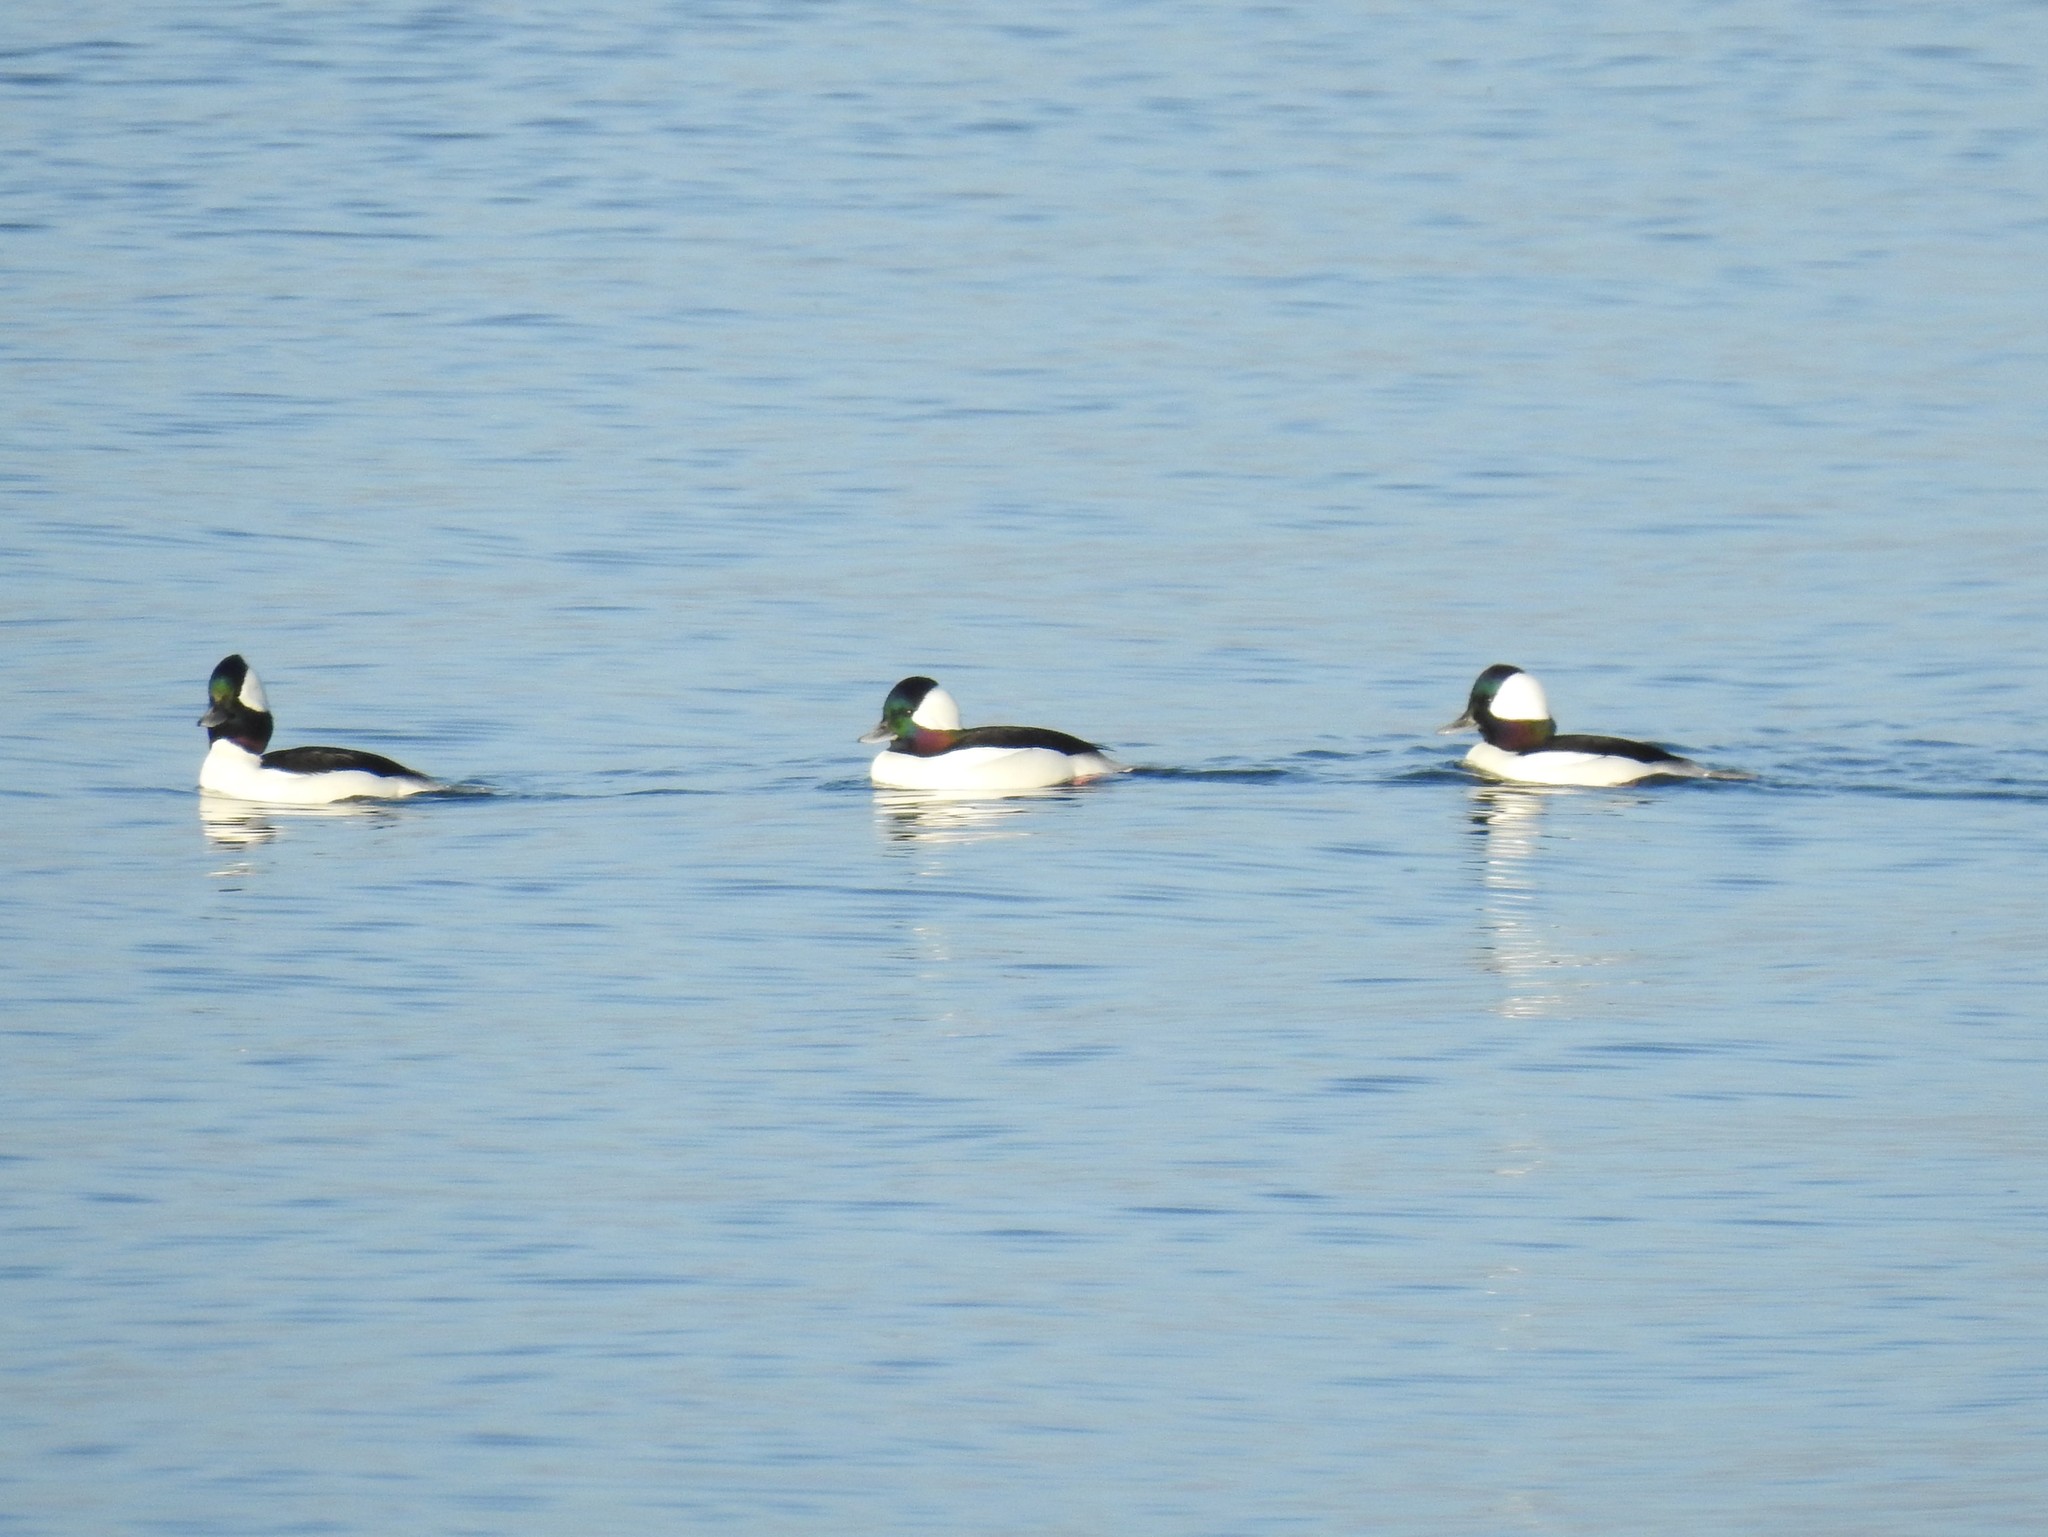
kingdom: Animalia
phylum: Chordata
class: Aves
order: Anseriformes
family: Anatidae
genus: Bucephala
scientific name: Bucephala albeola
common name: Bufflehead
